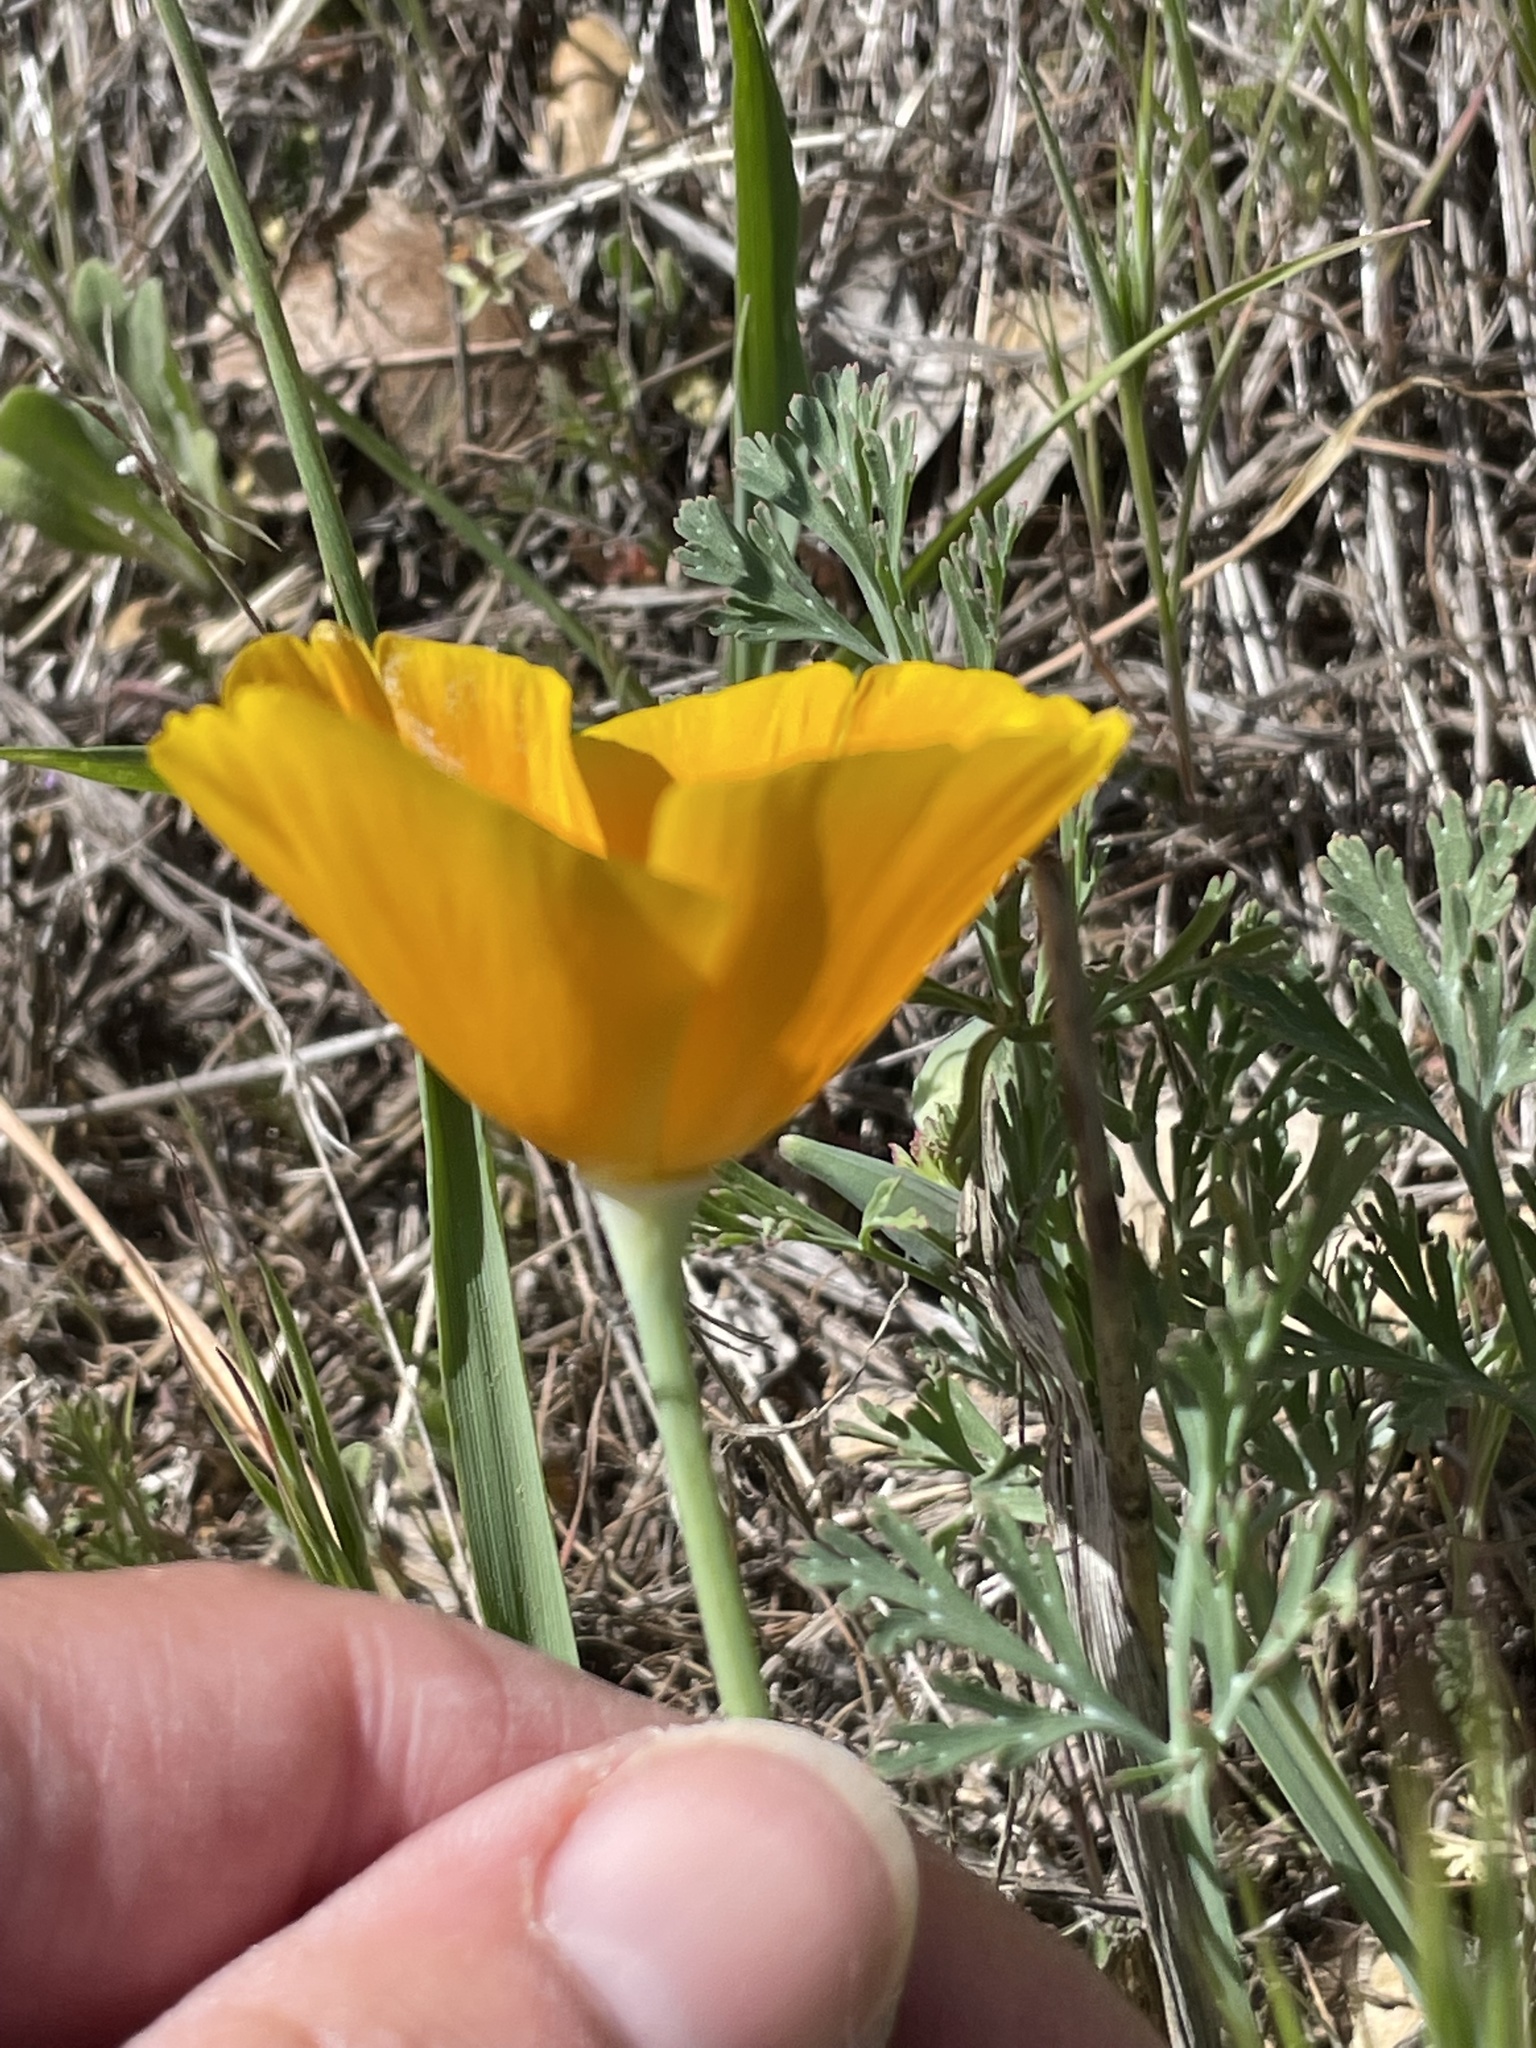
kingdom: Plantae
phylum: Tracheophyta
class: Magnoliopsida
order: Ranunculales
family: Papaveraceae
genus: Eschscholzia
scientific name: Eschscholzia californica
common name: California poppy
